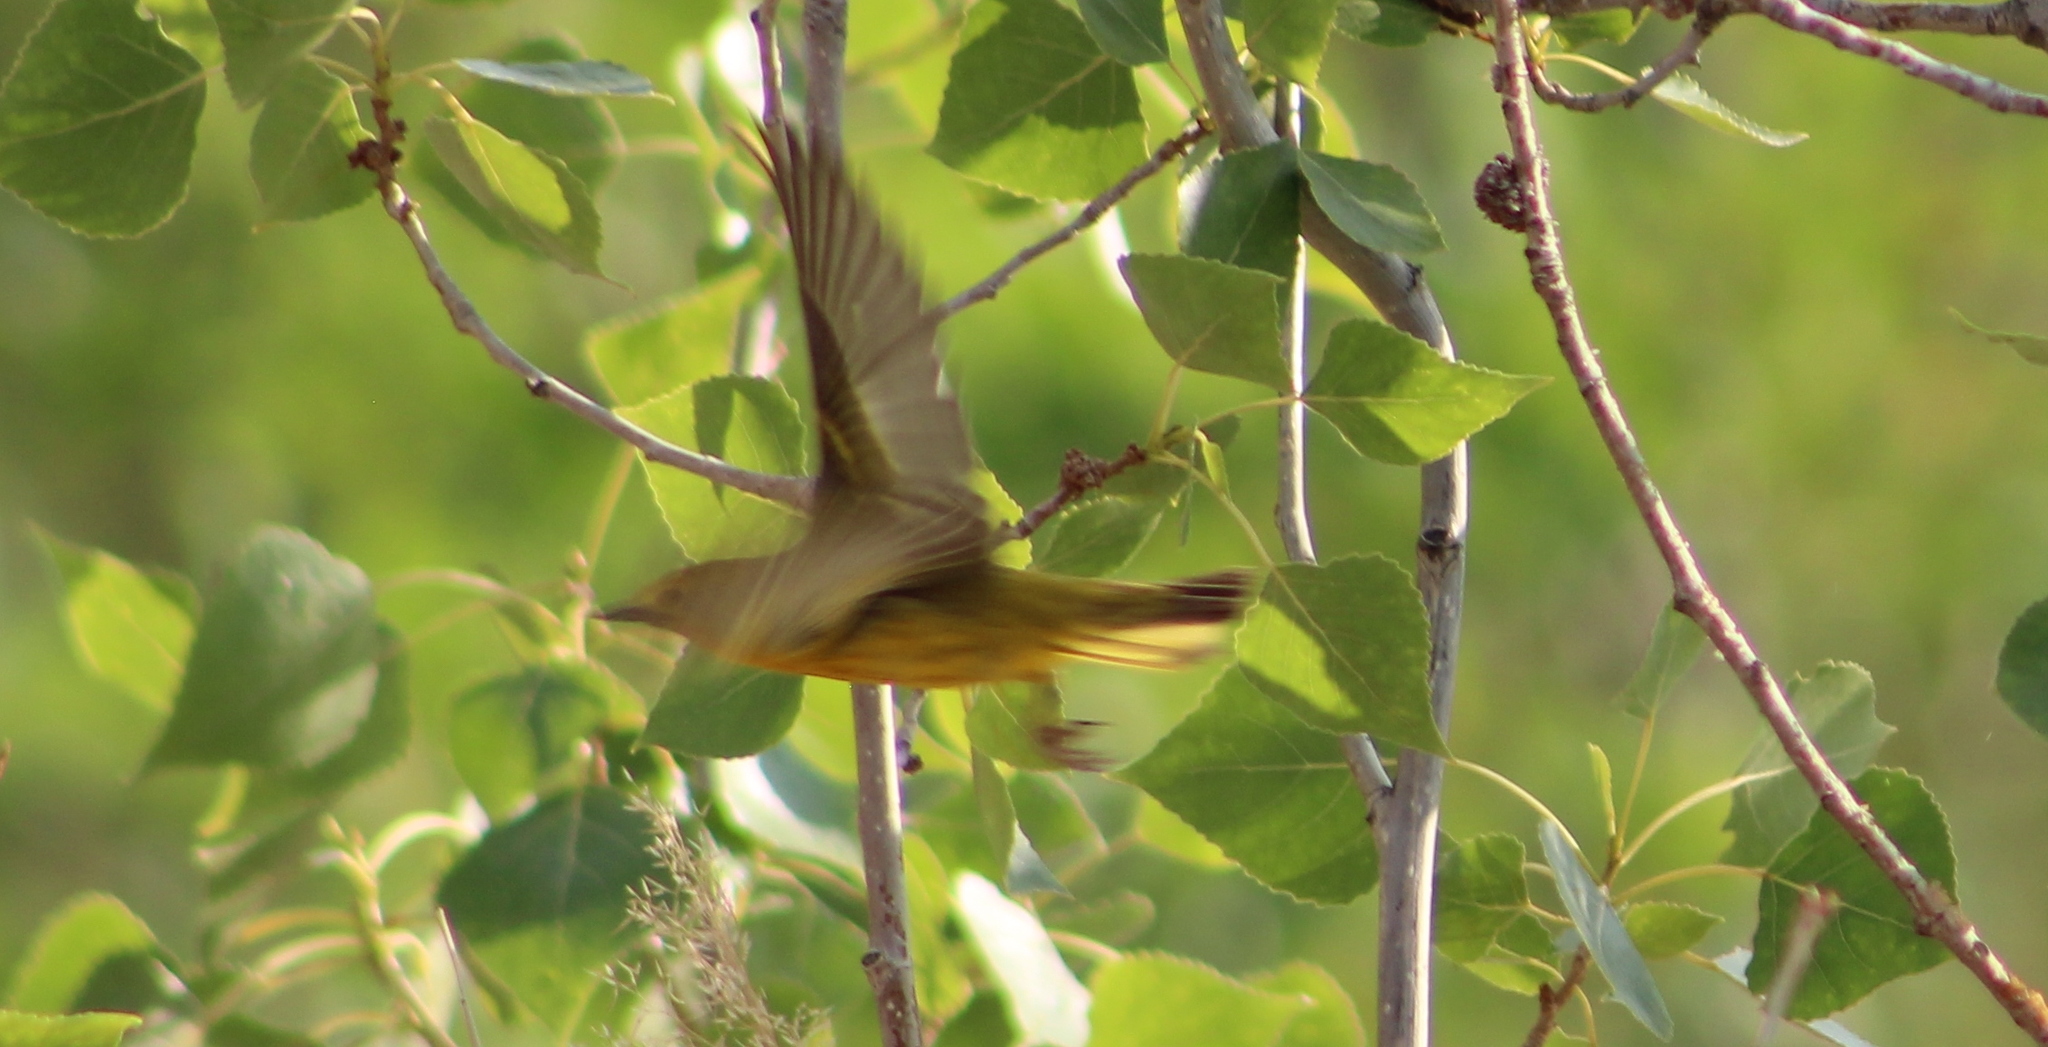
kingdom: Animalia
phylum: Chordata
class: Aves
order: Passeriformes
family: Parulidae
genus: Setophaga
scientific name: Setophaga petechia
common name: Yellow warbler
